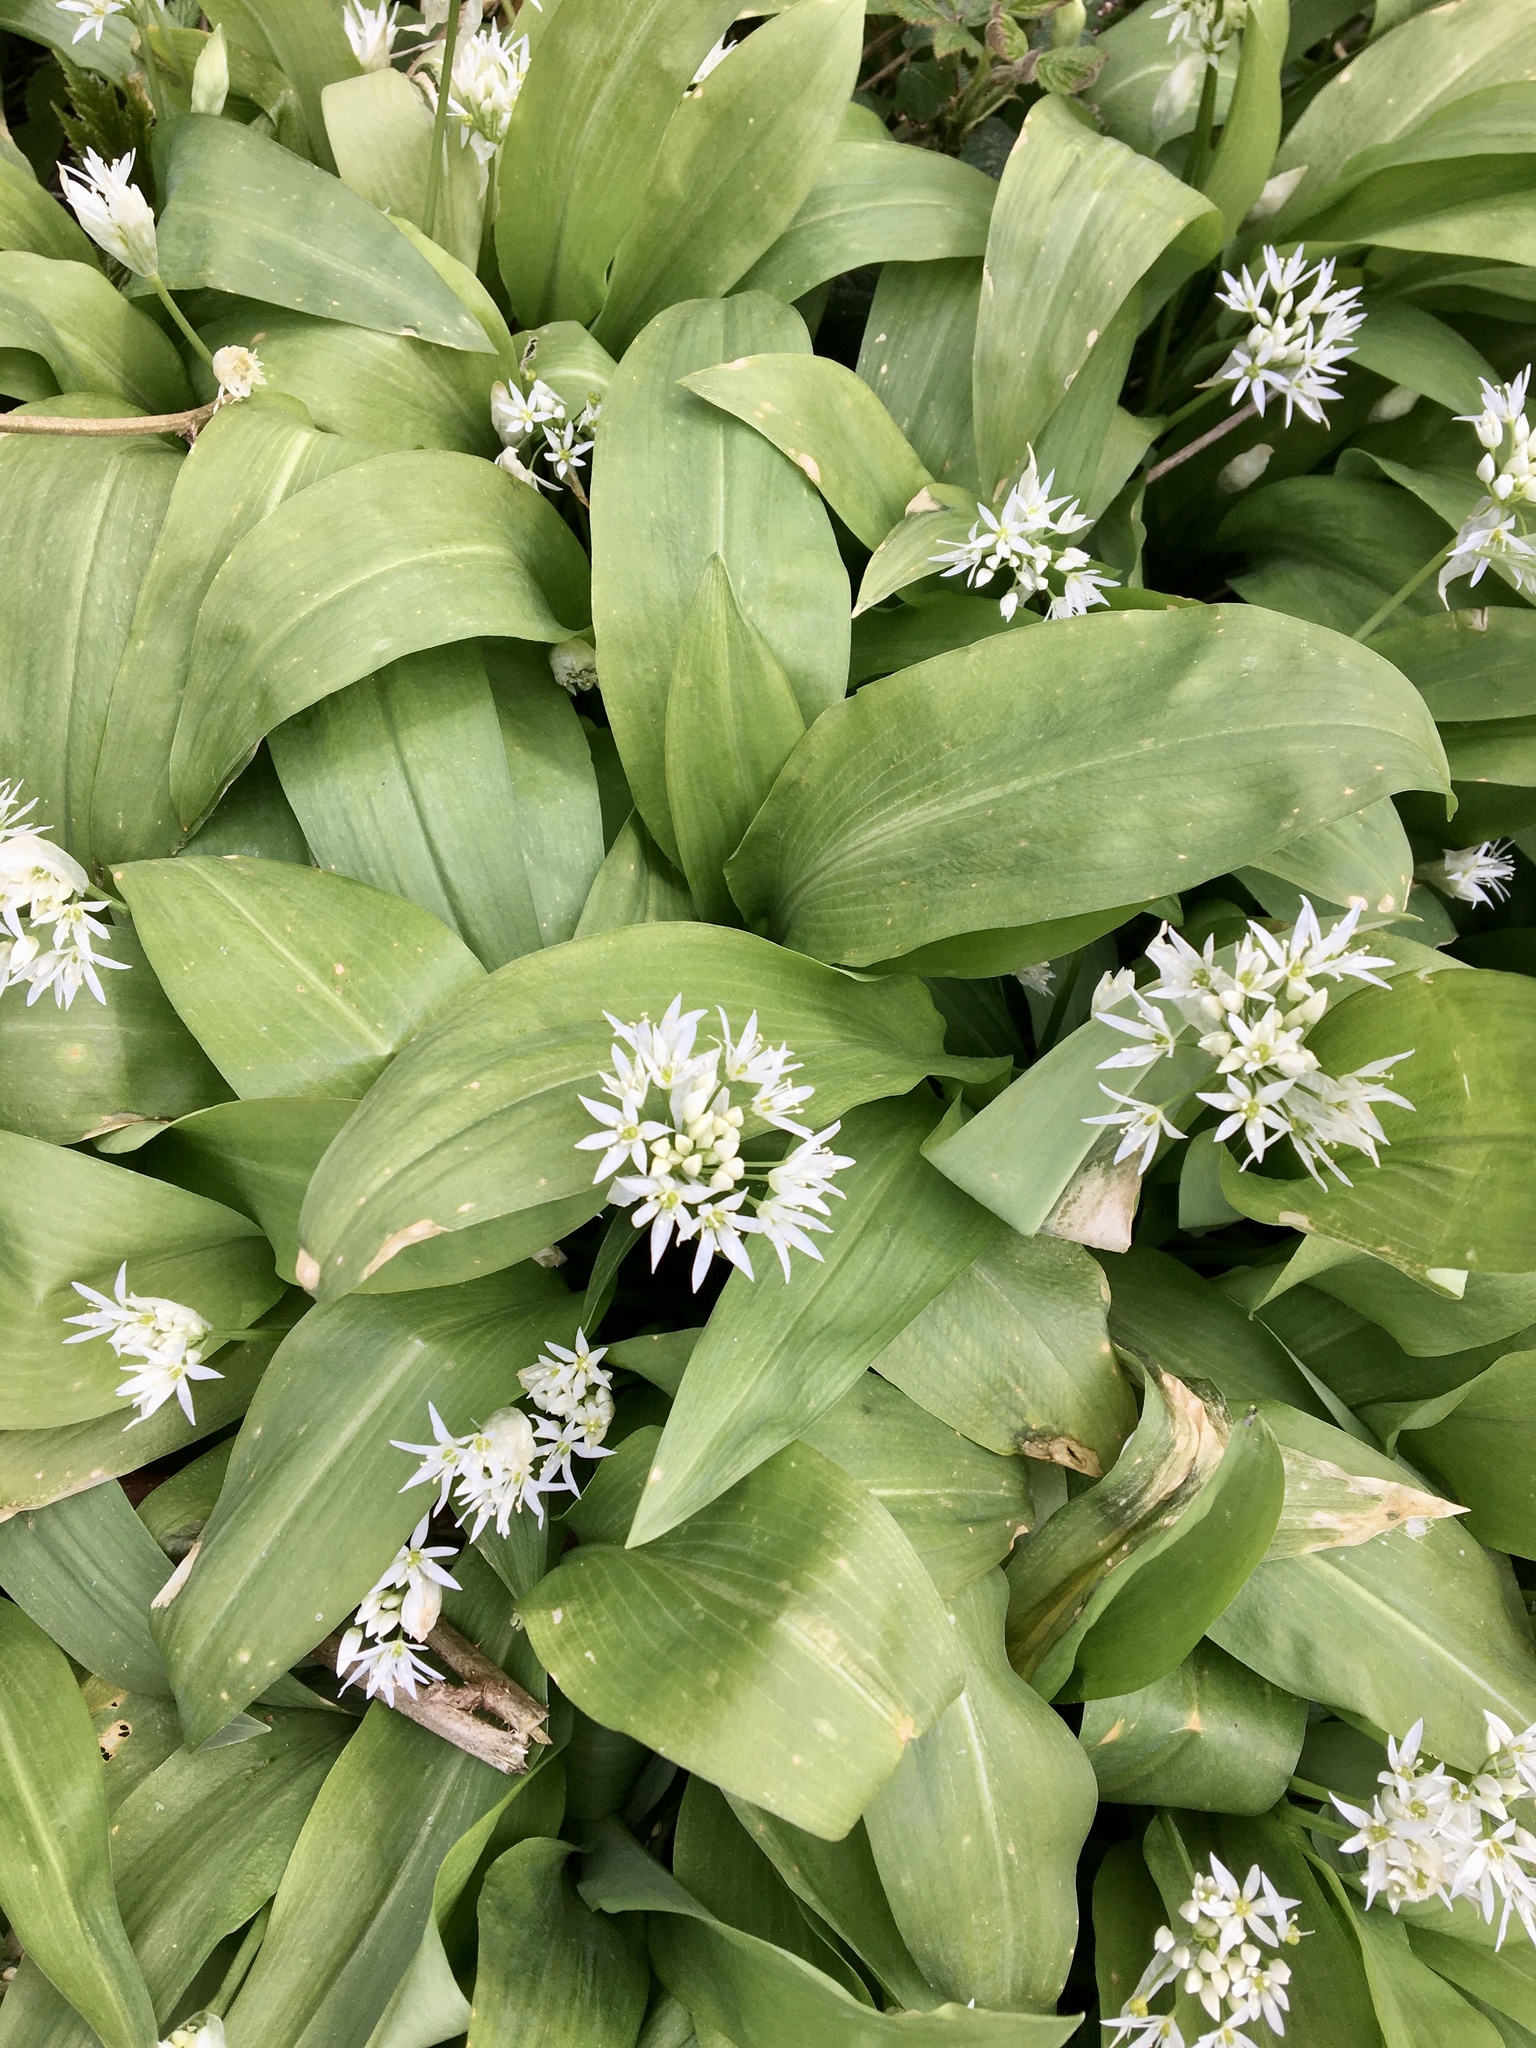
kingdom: Plantae
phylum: Tracheophyta
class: Liliopsida
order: Asparagales
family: Amaryllidaceae
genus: Allium
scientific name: Allium ursinum
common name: Ramsons
